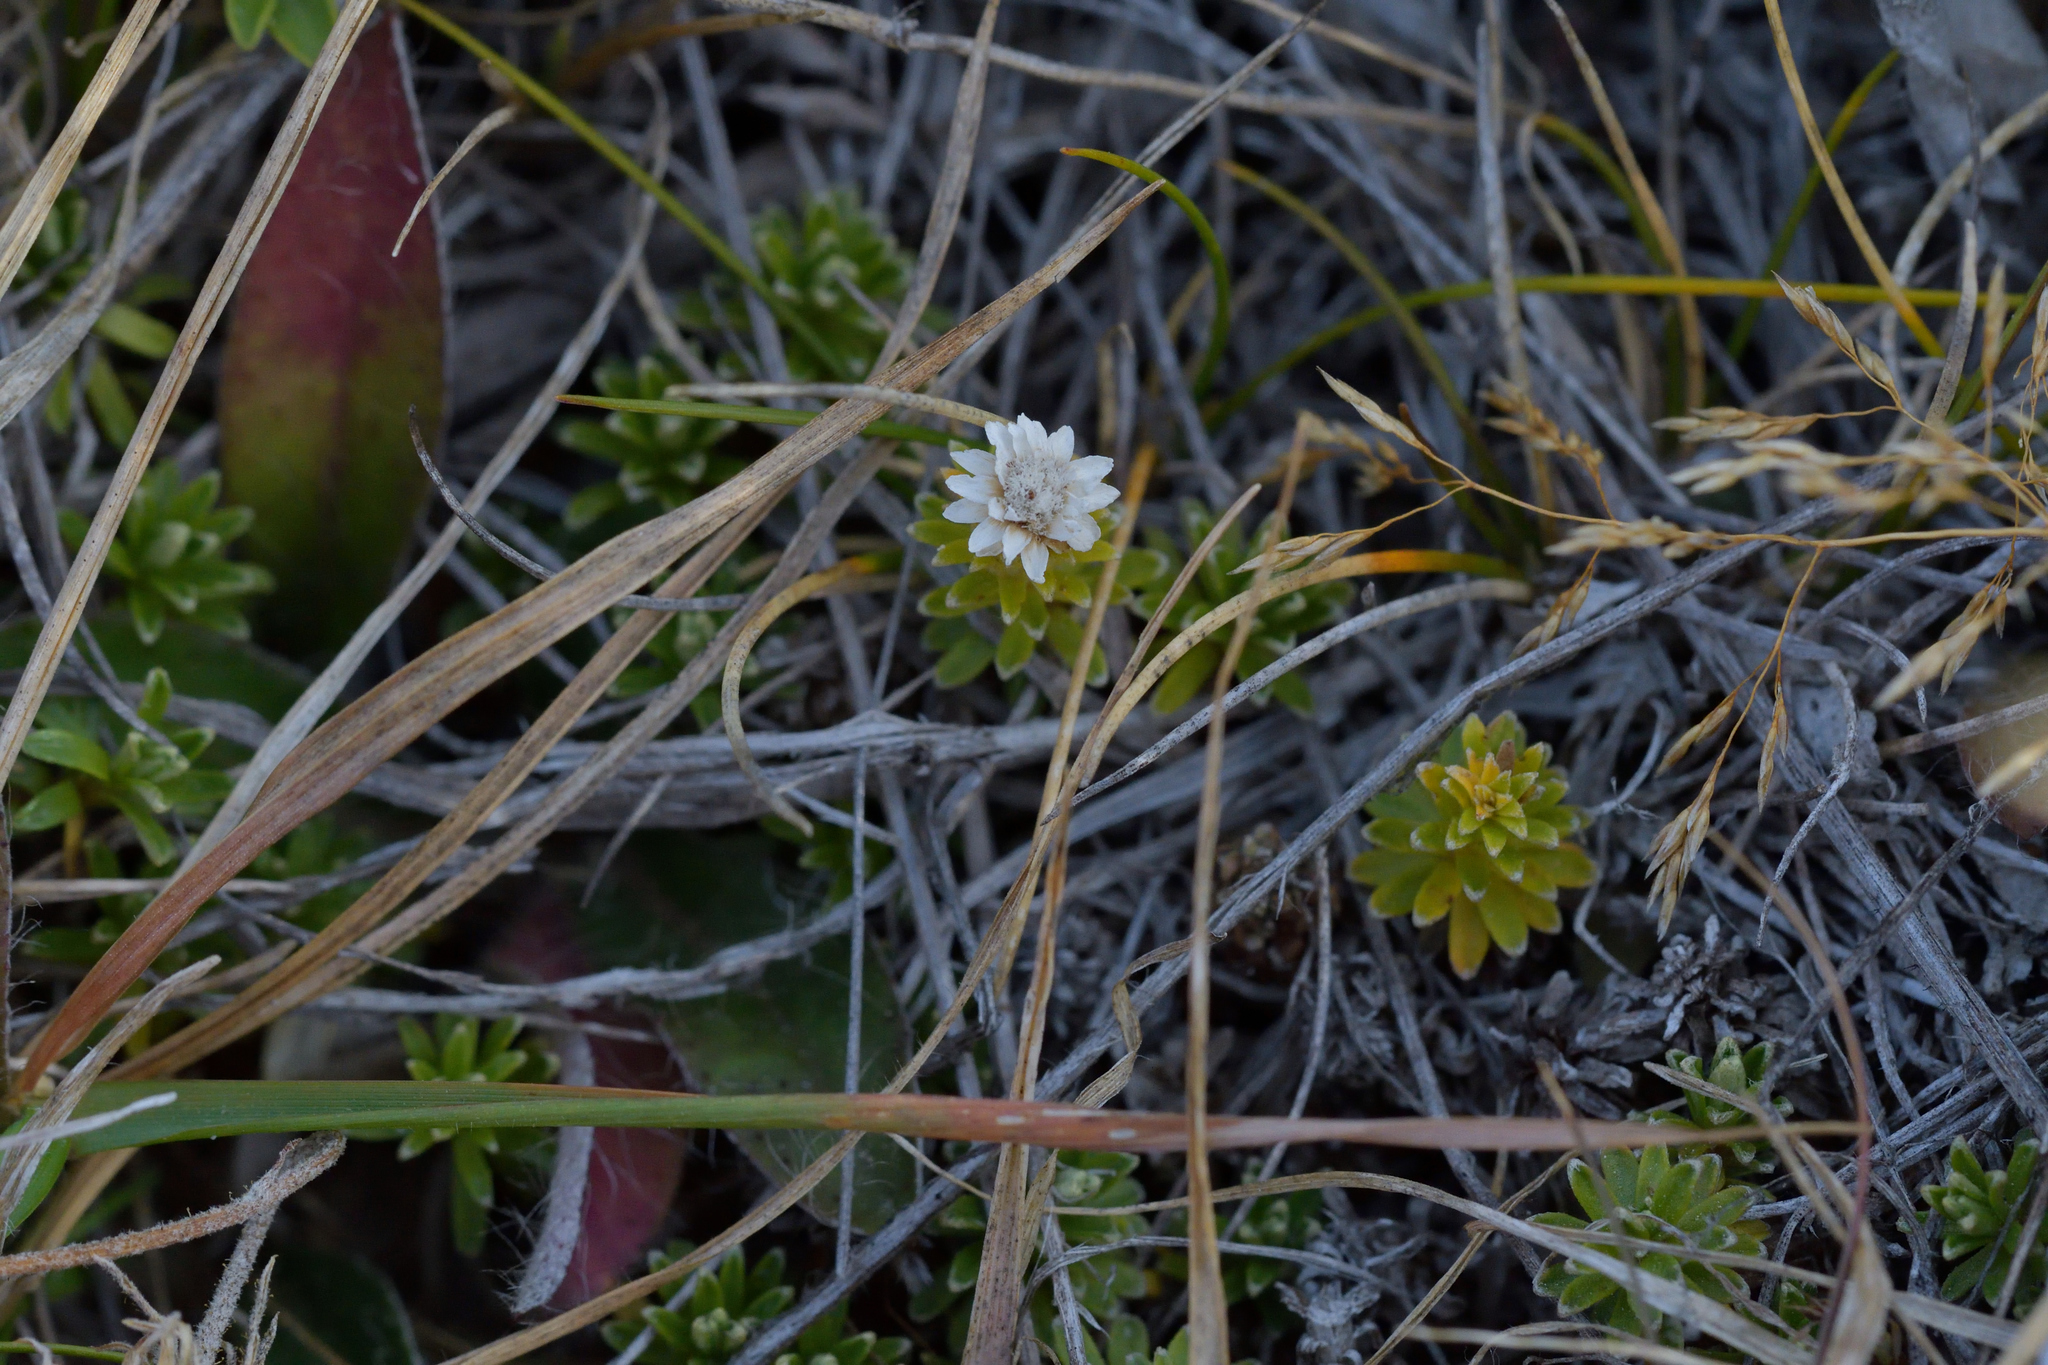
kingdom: Plantae
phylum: Tracheophyta
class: Magnoliopsida
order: Asterales
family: Asteraceae
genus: Raoulia
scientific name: Raoulia subsericea
